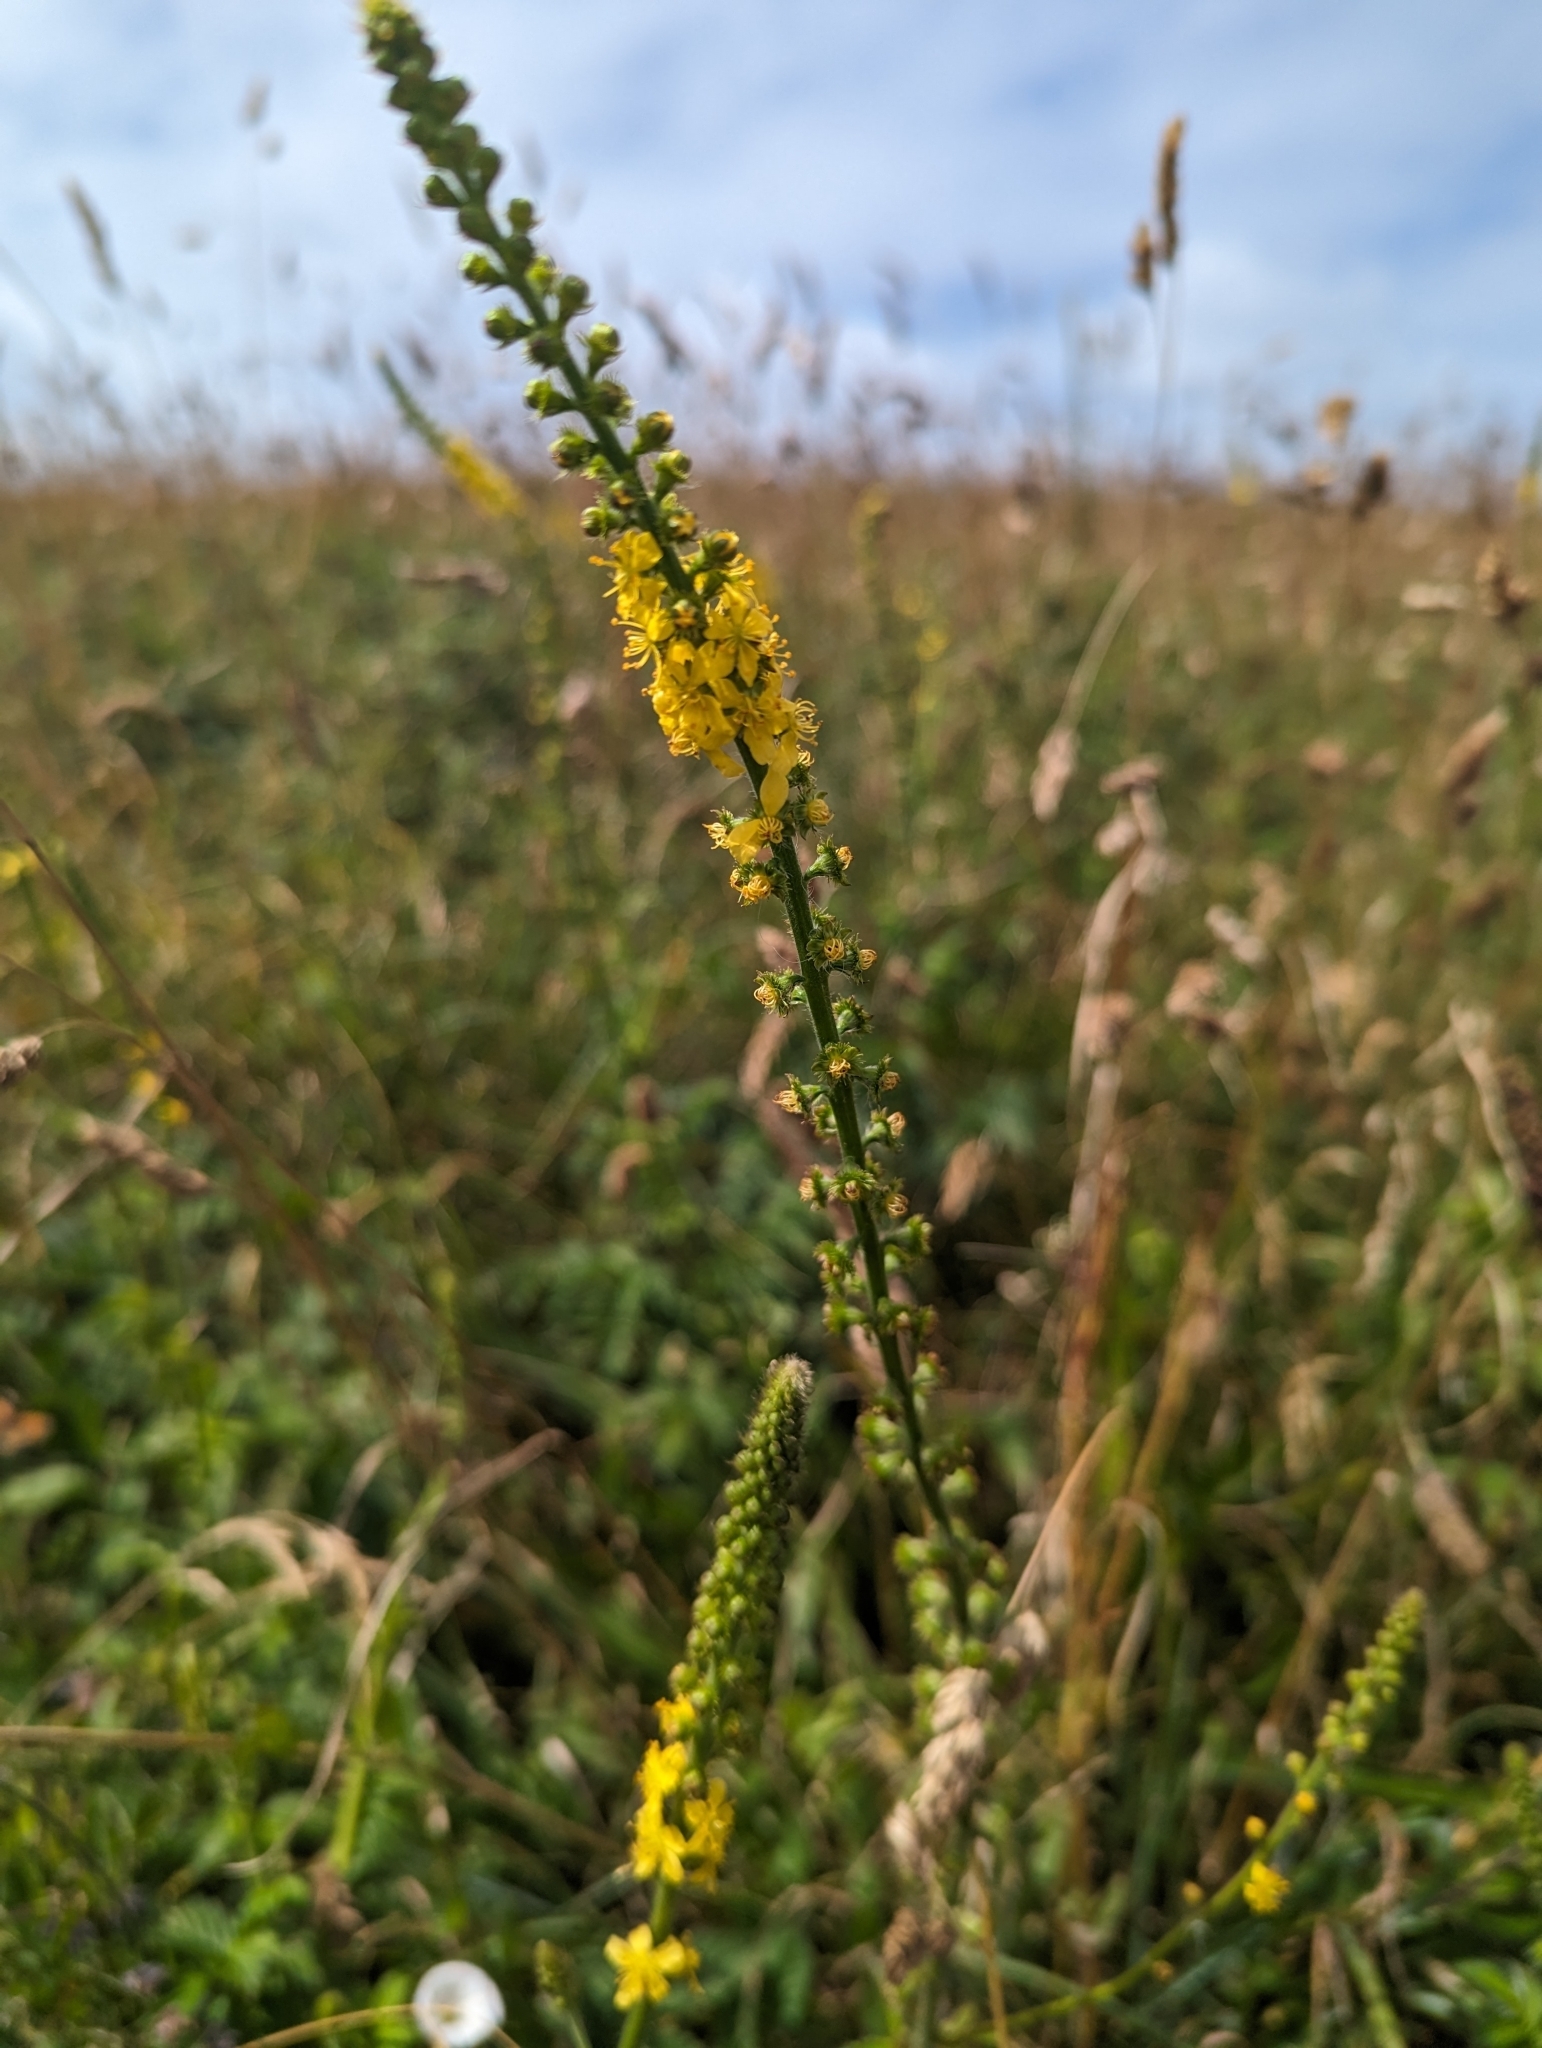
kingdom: Plantae
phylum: Tracheophyta
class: Magnoliopsida
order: Rosales
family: Rosaceae
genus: Agrimonia
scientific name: Agrimonia eupatoria
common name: Agrimony
